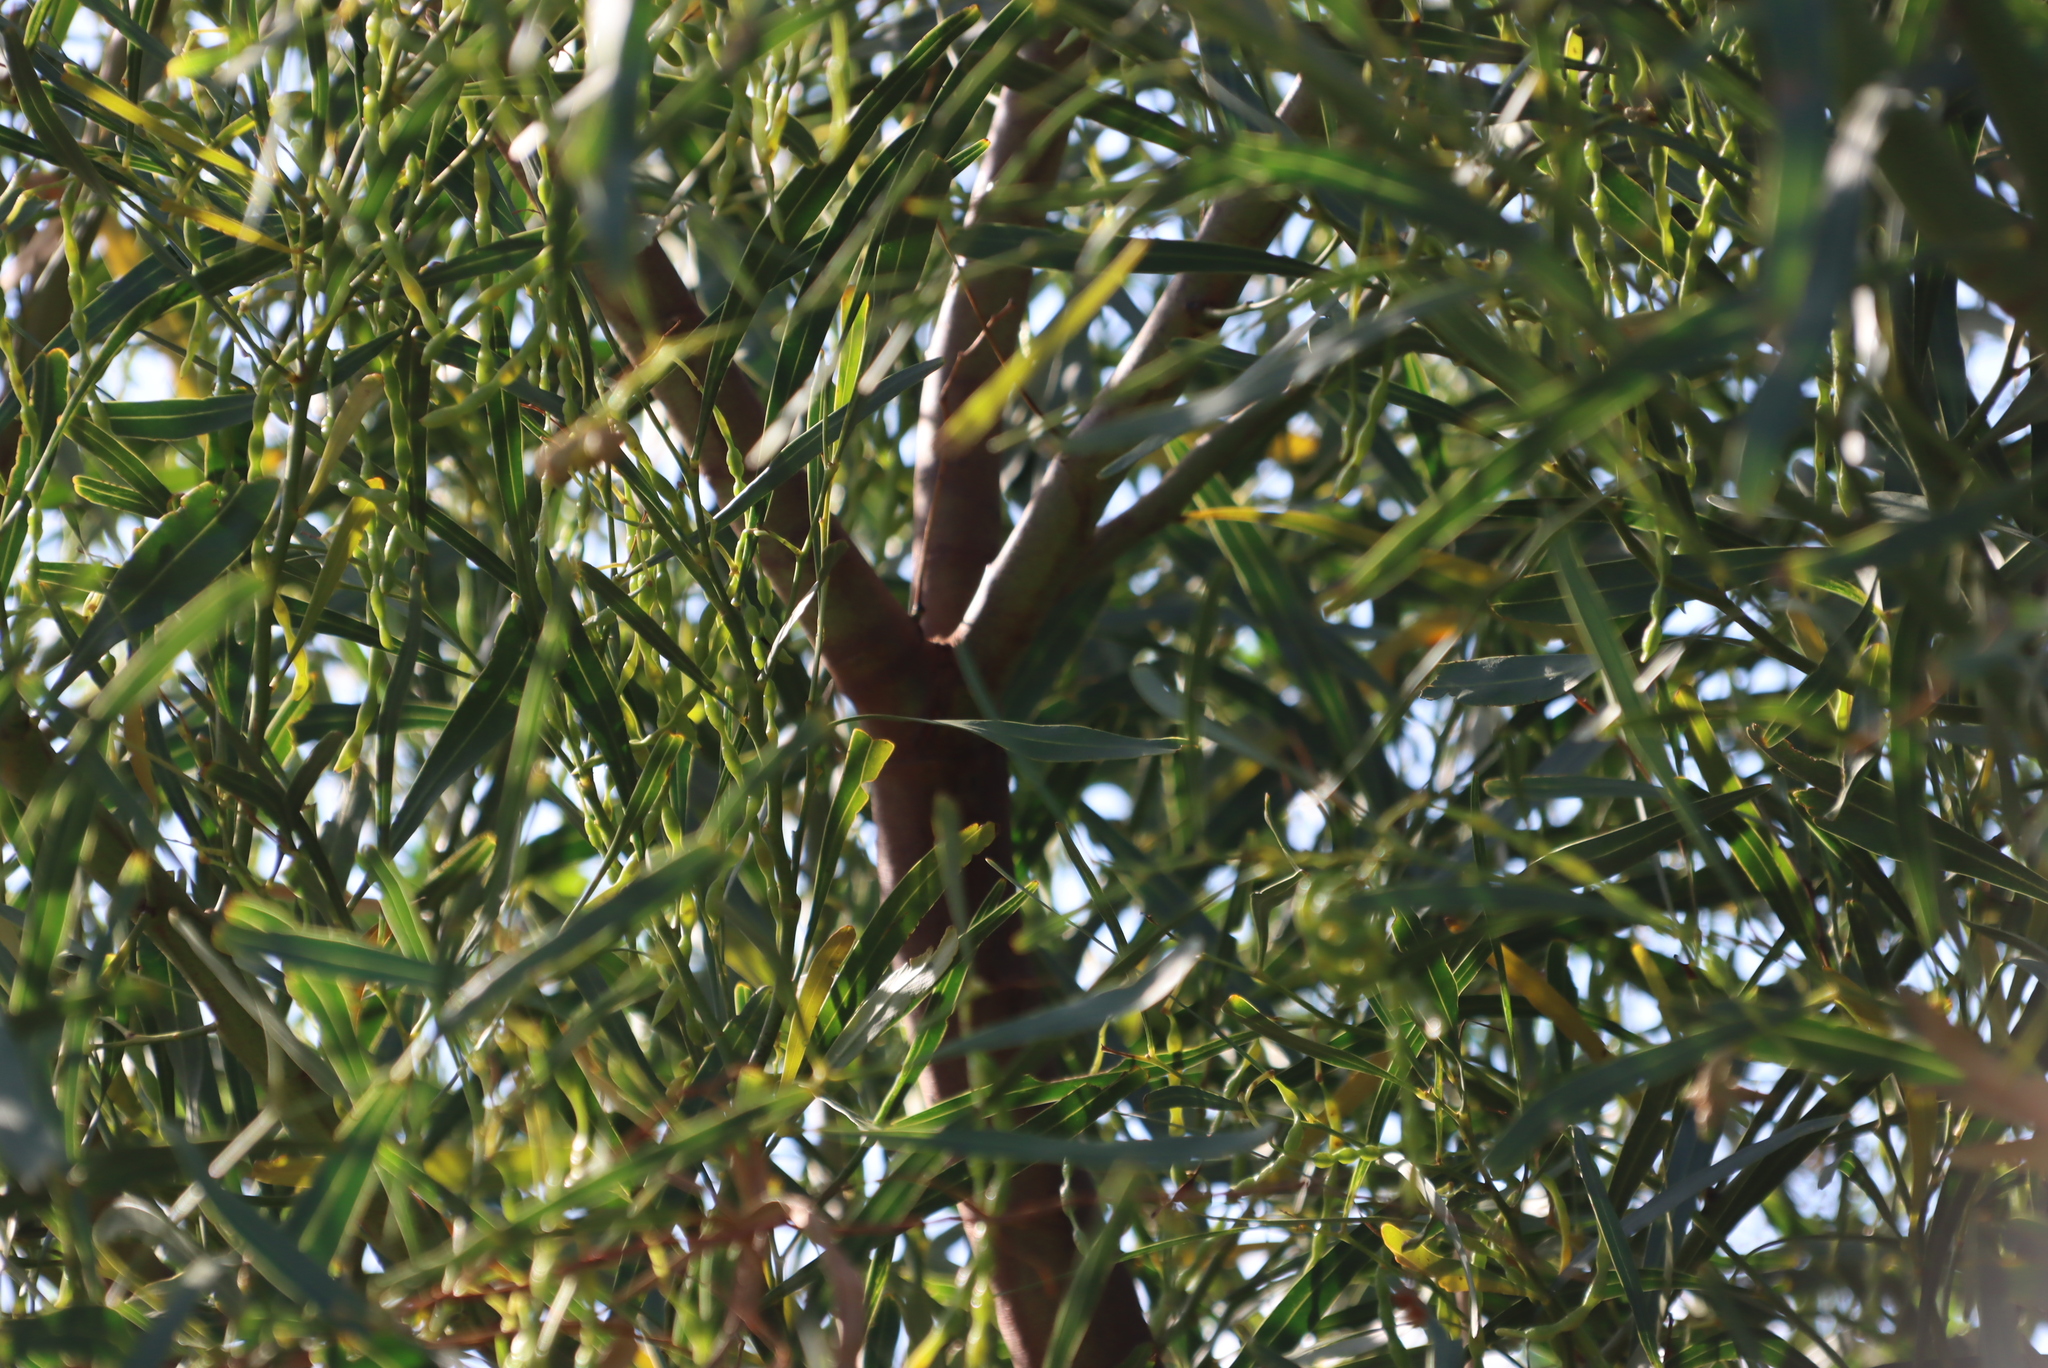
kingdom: Plantae
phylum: Tracheophyta
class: Magnoliopsida
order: Fabales
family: Fabaceae
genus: Acacia
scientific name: Acacia saligna
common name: Orange wattle
